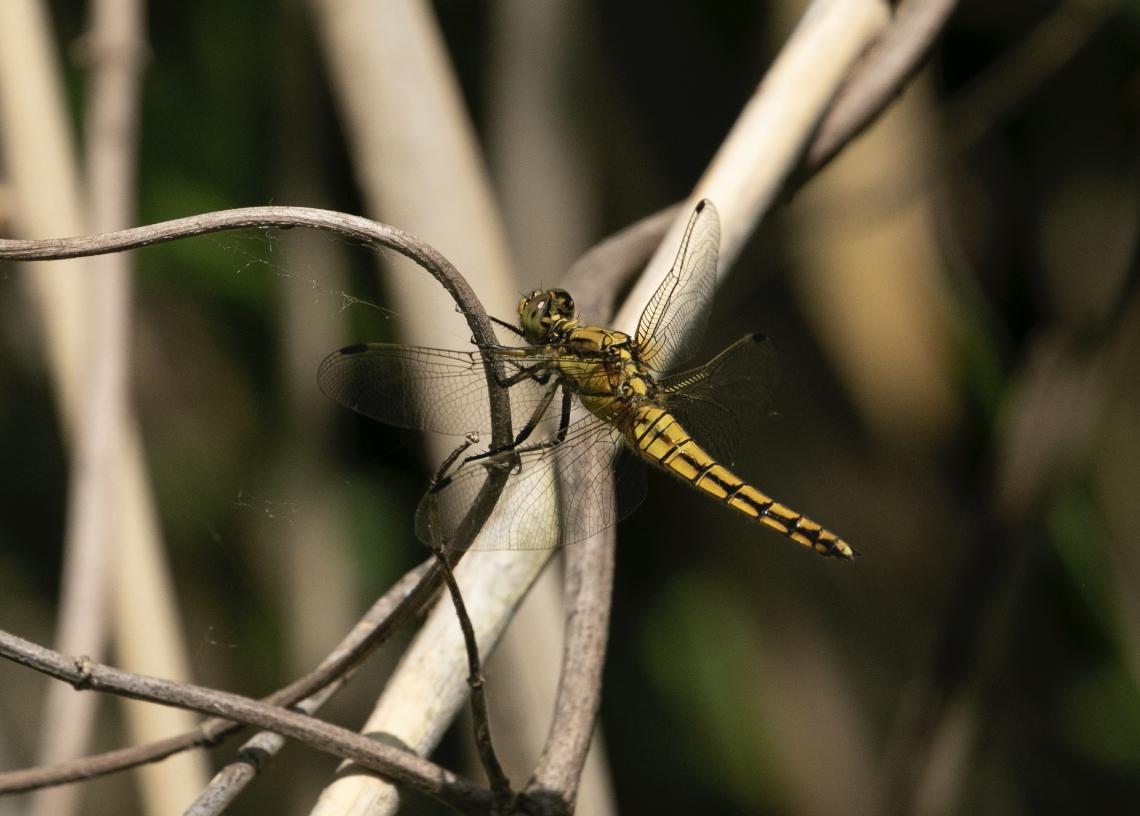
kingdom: Animalia
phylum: Arthropoda
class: Insecta
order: Odonata
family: Libellulidae
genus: Orthetrum
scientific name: Orthetrum cancellatum
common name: Black-tailed skimmer
